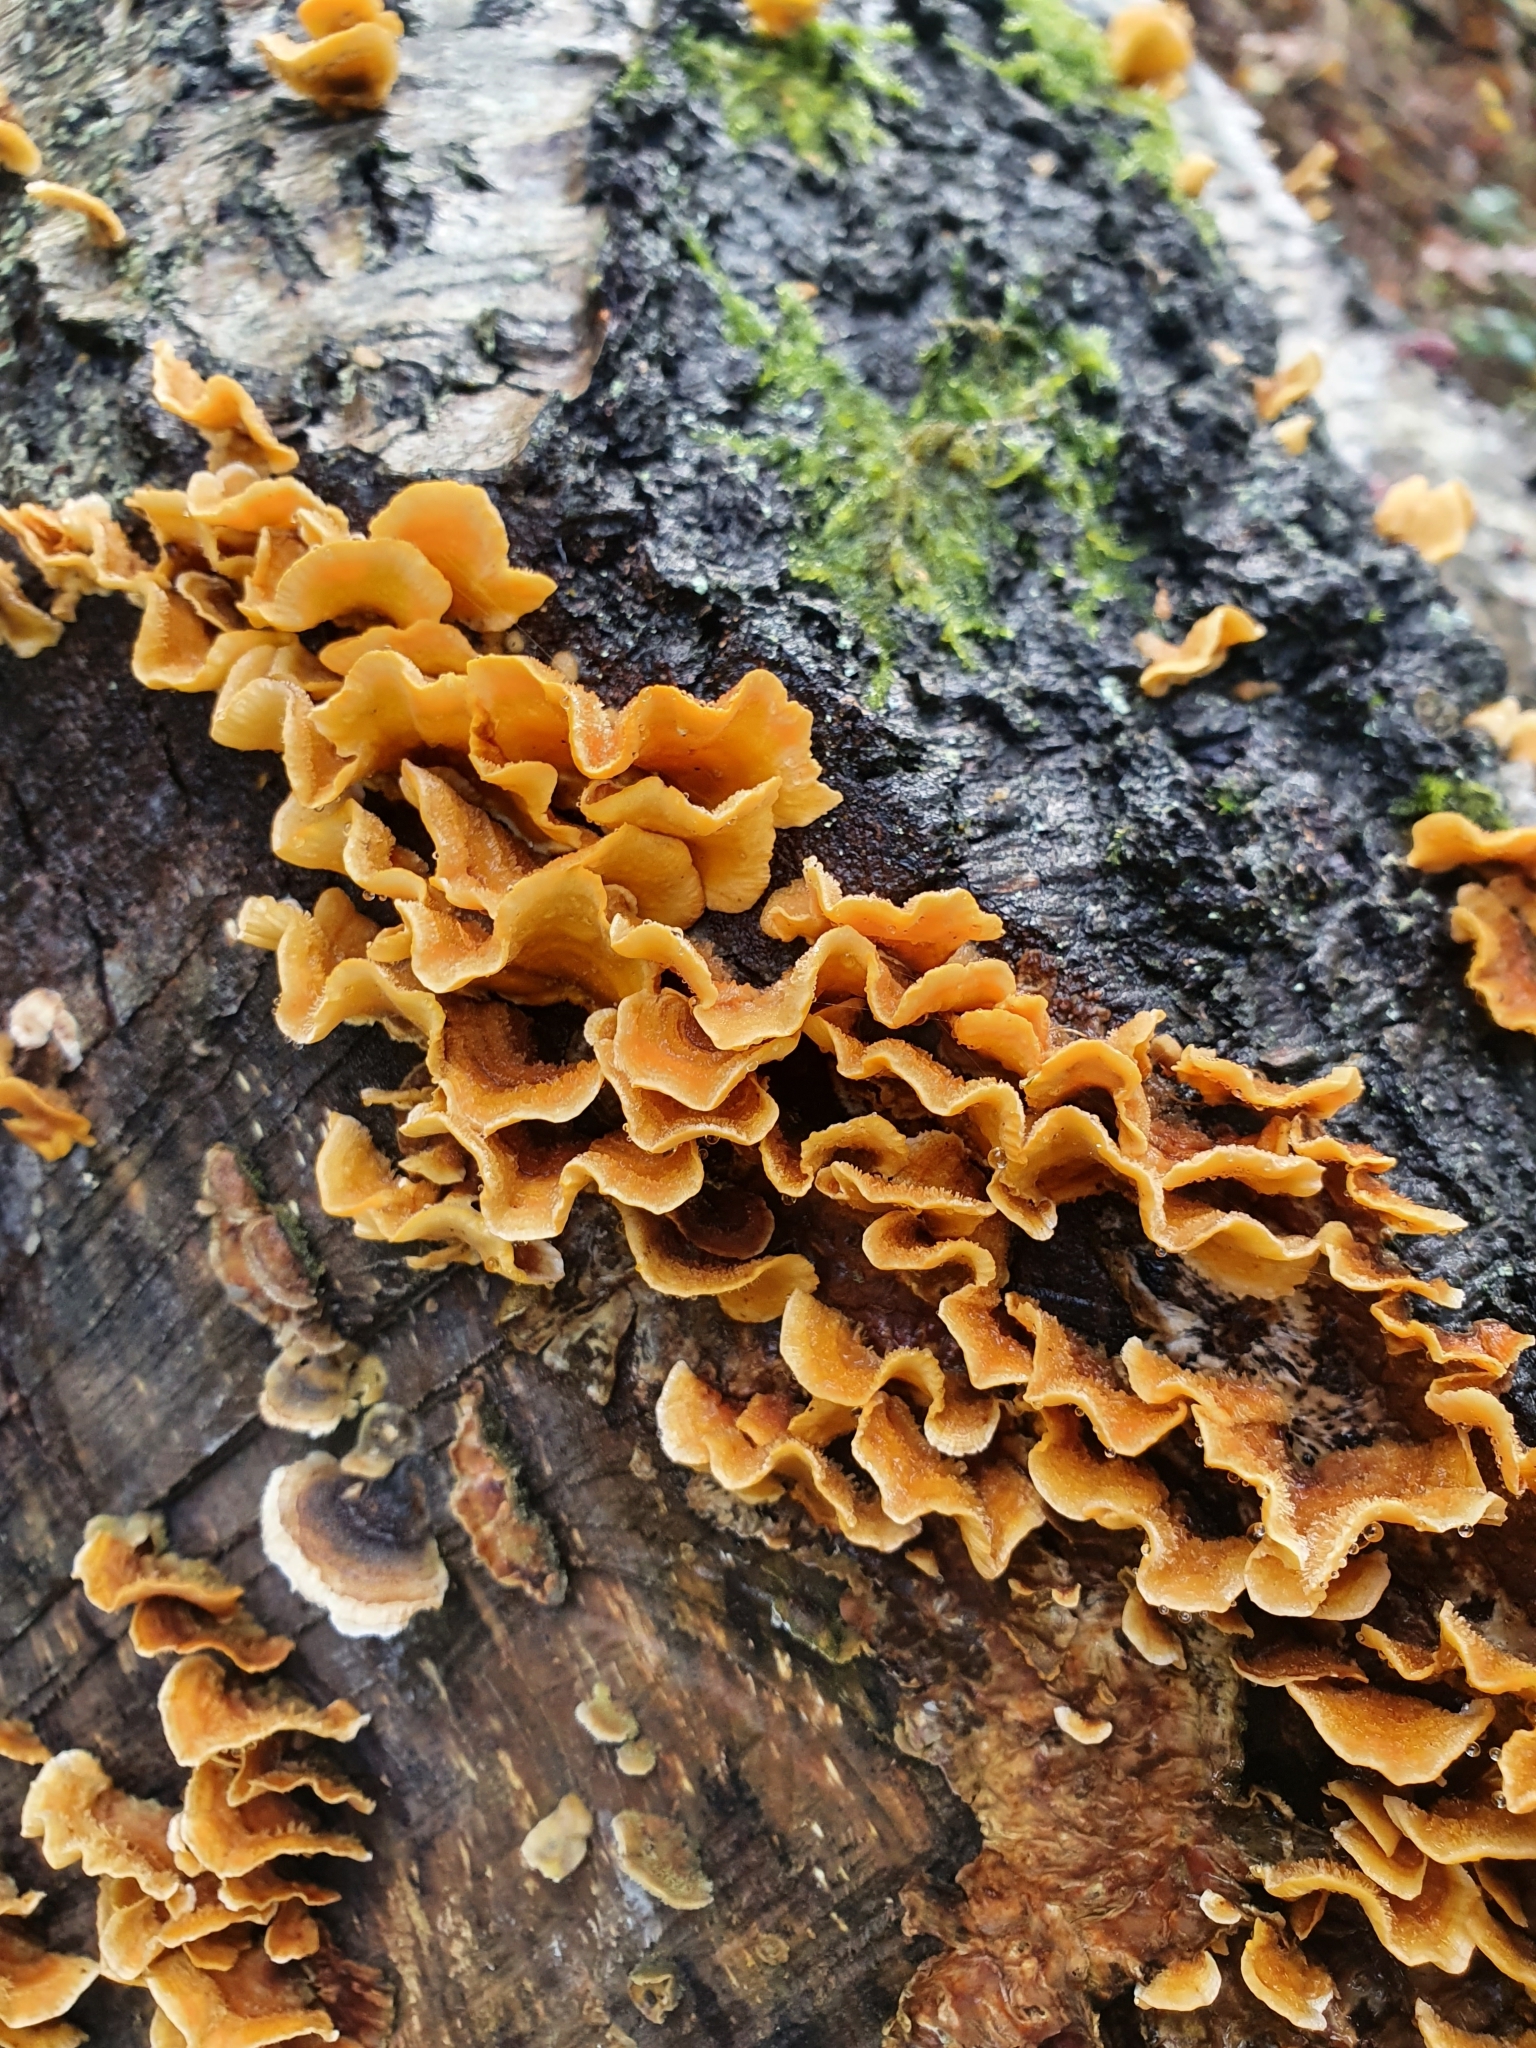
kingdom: Fungi
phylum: Basidiomycota
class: Agaricomycetes
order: Russulales
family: Stereaceae
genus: Stereum
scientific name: Stereum hirsutum
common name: Hairy curtain crust
